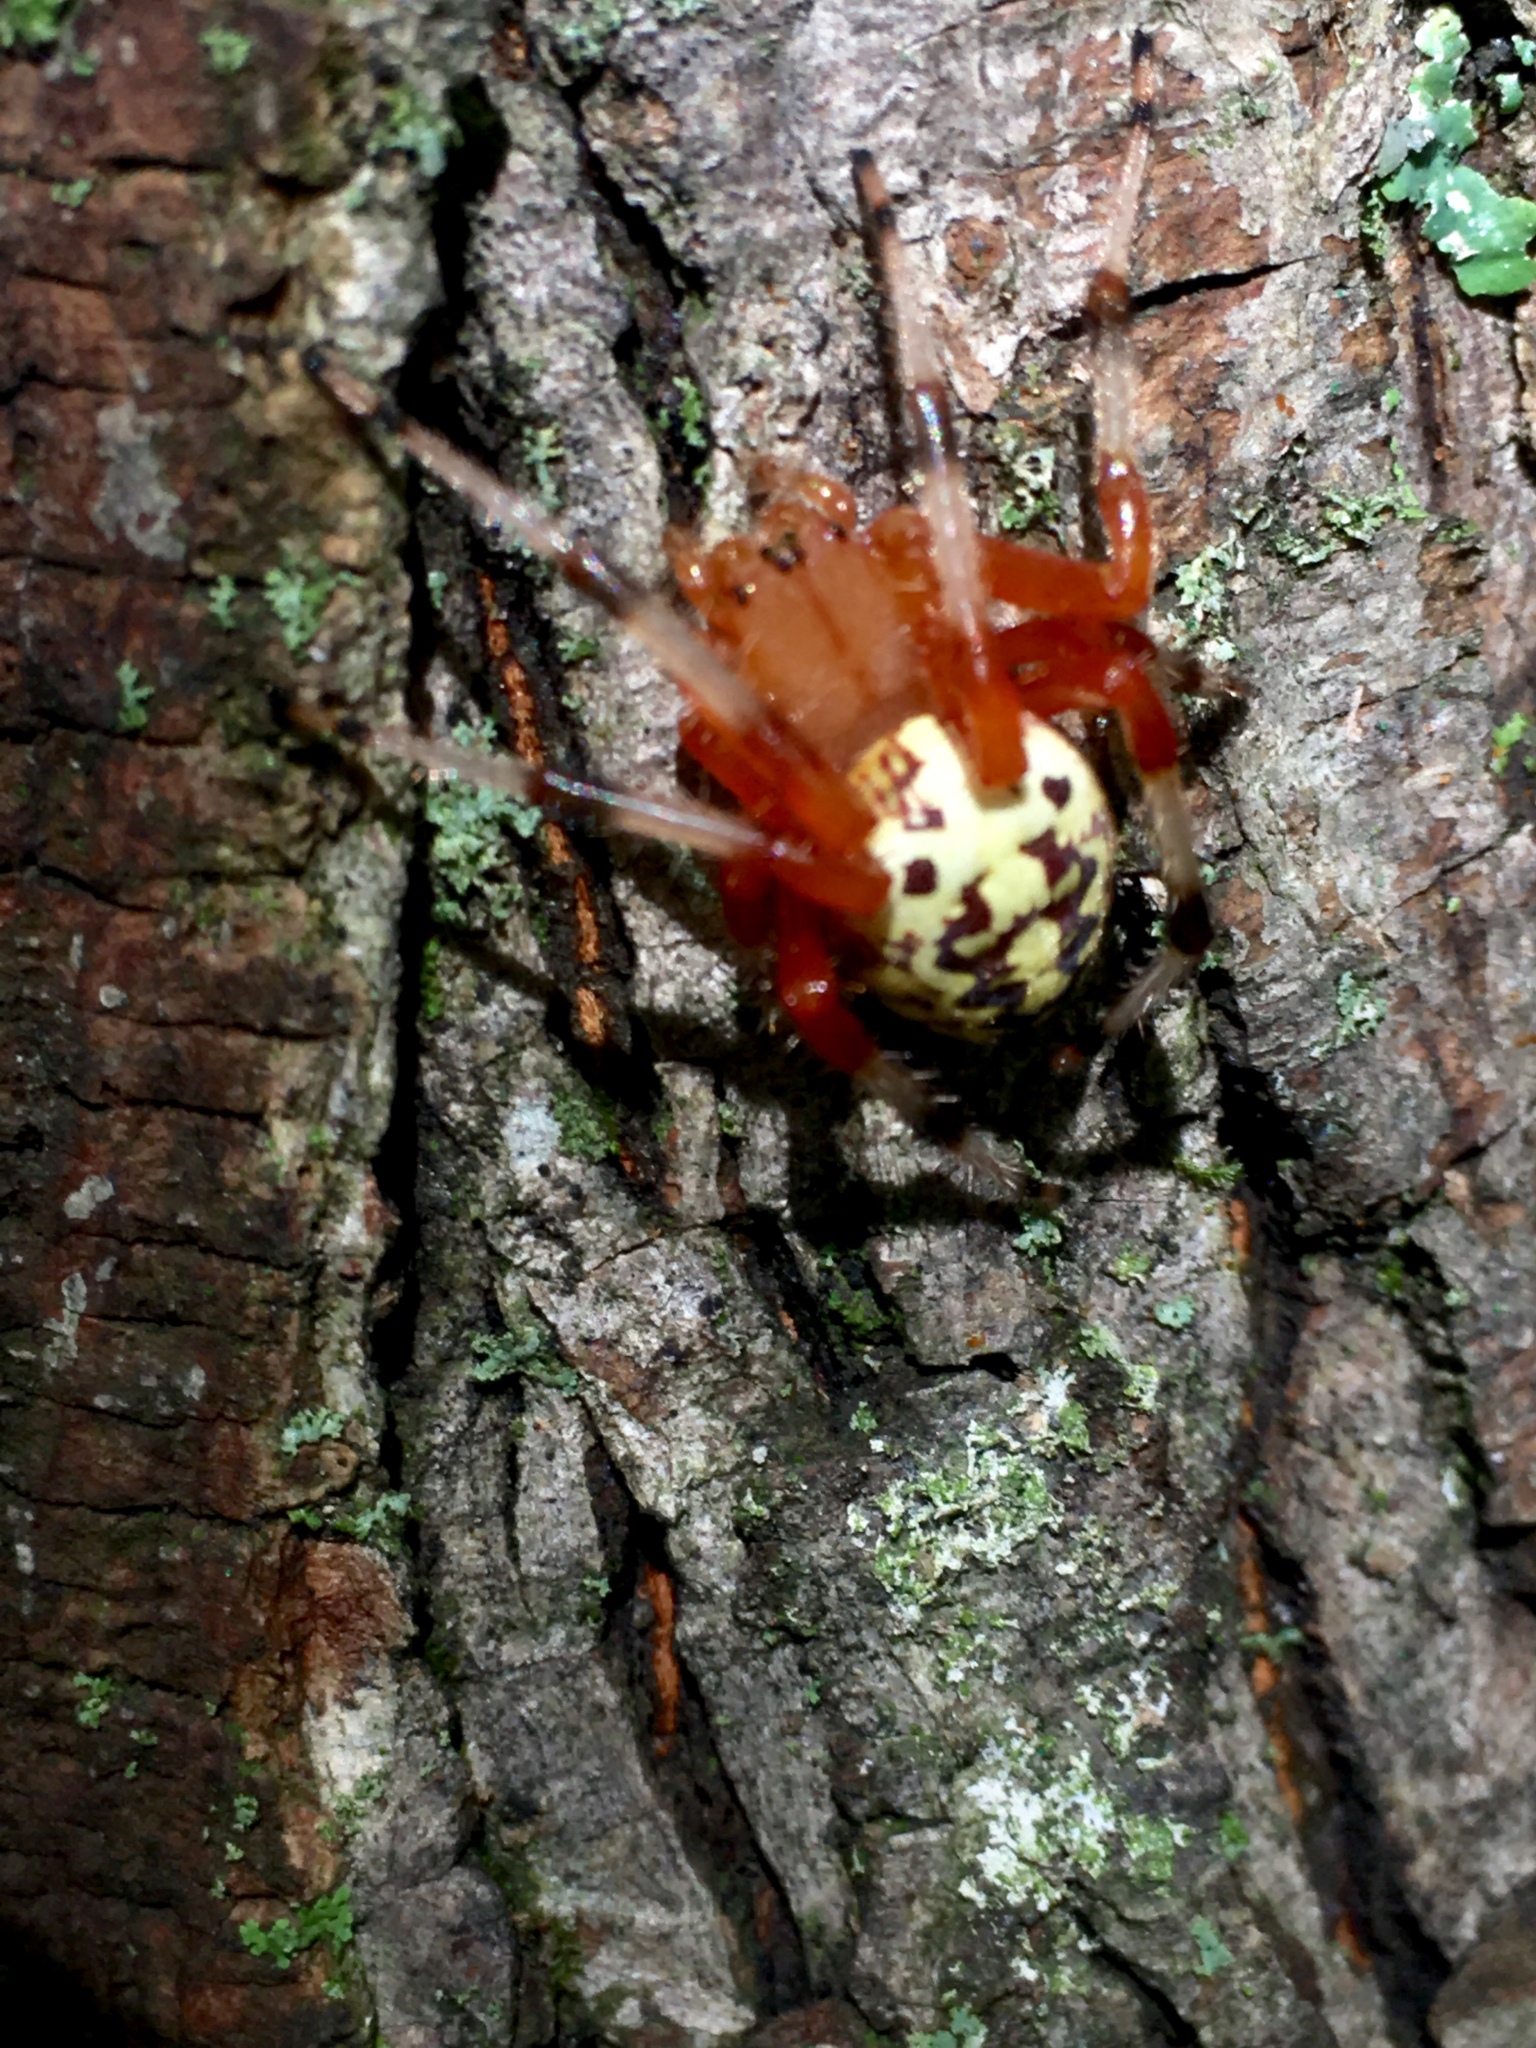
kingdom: Animalia
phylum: Arthropoda
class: Arachnida
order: Araneae
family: Araneidae
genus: Araneus
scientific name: Araneus marmoreus
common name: Marbled orbweaver
